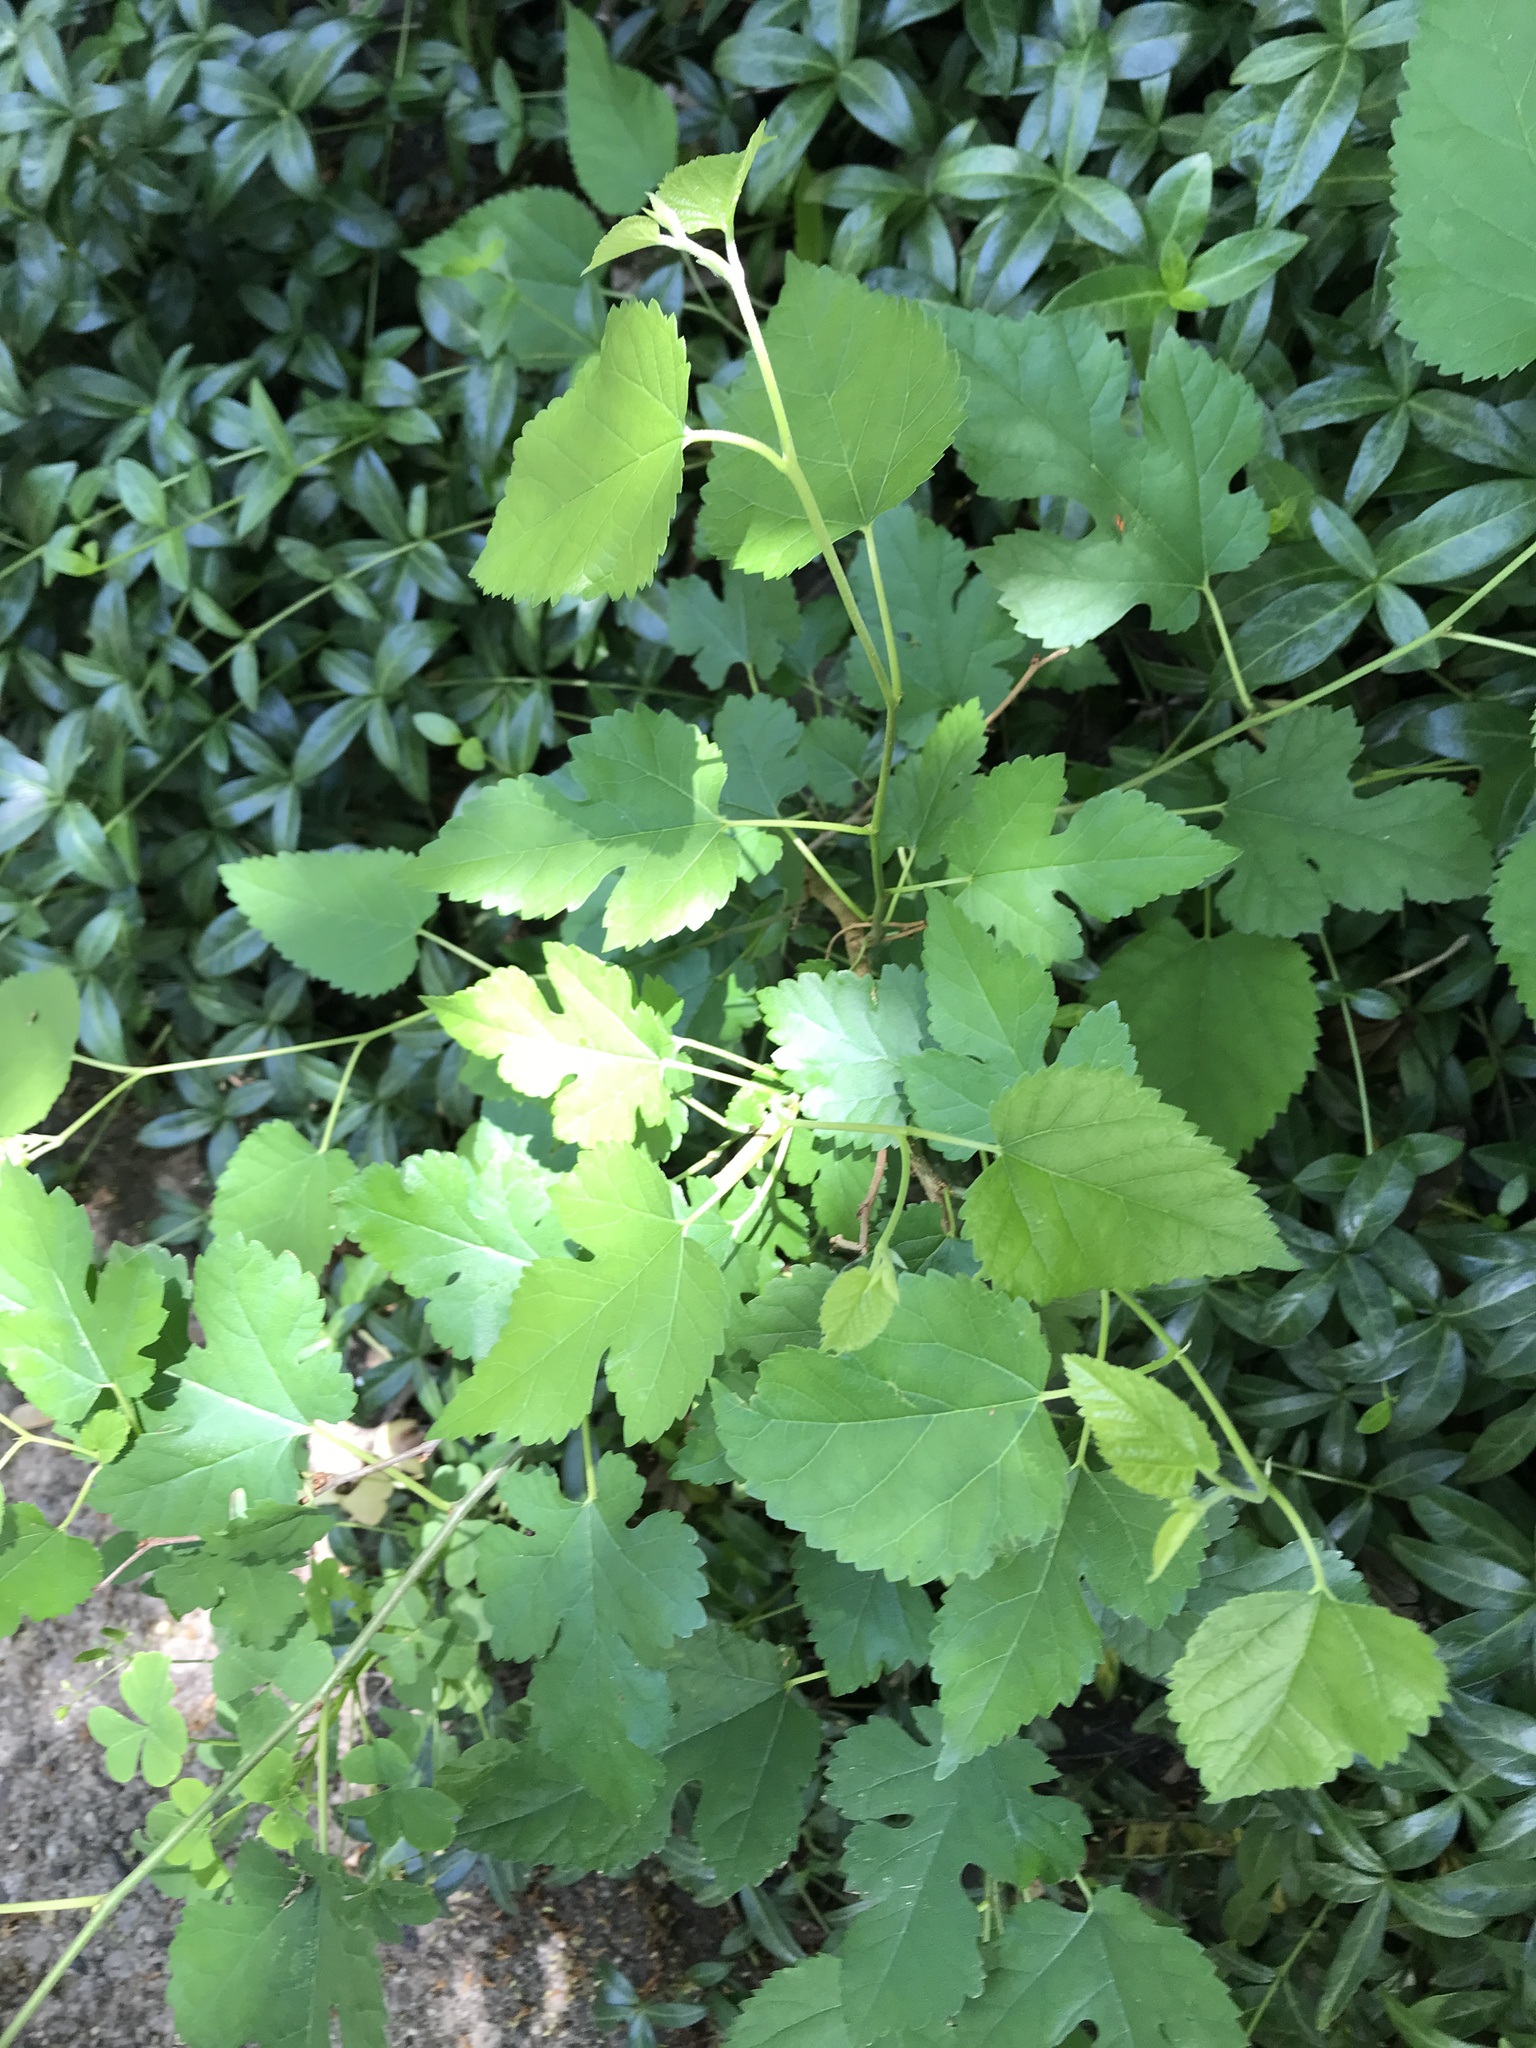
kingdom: Plantae
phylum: Tracheophyta
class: Magnoliopsida
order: Rosales
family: Moraceae
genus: Morus
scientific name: Morus alba
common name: White mulberry
